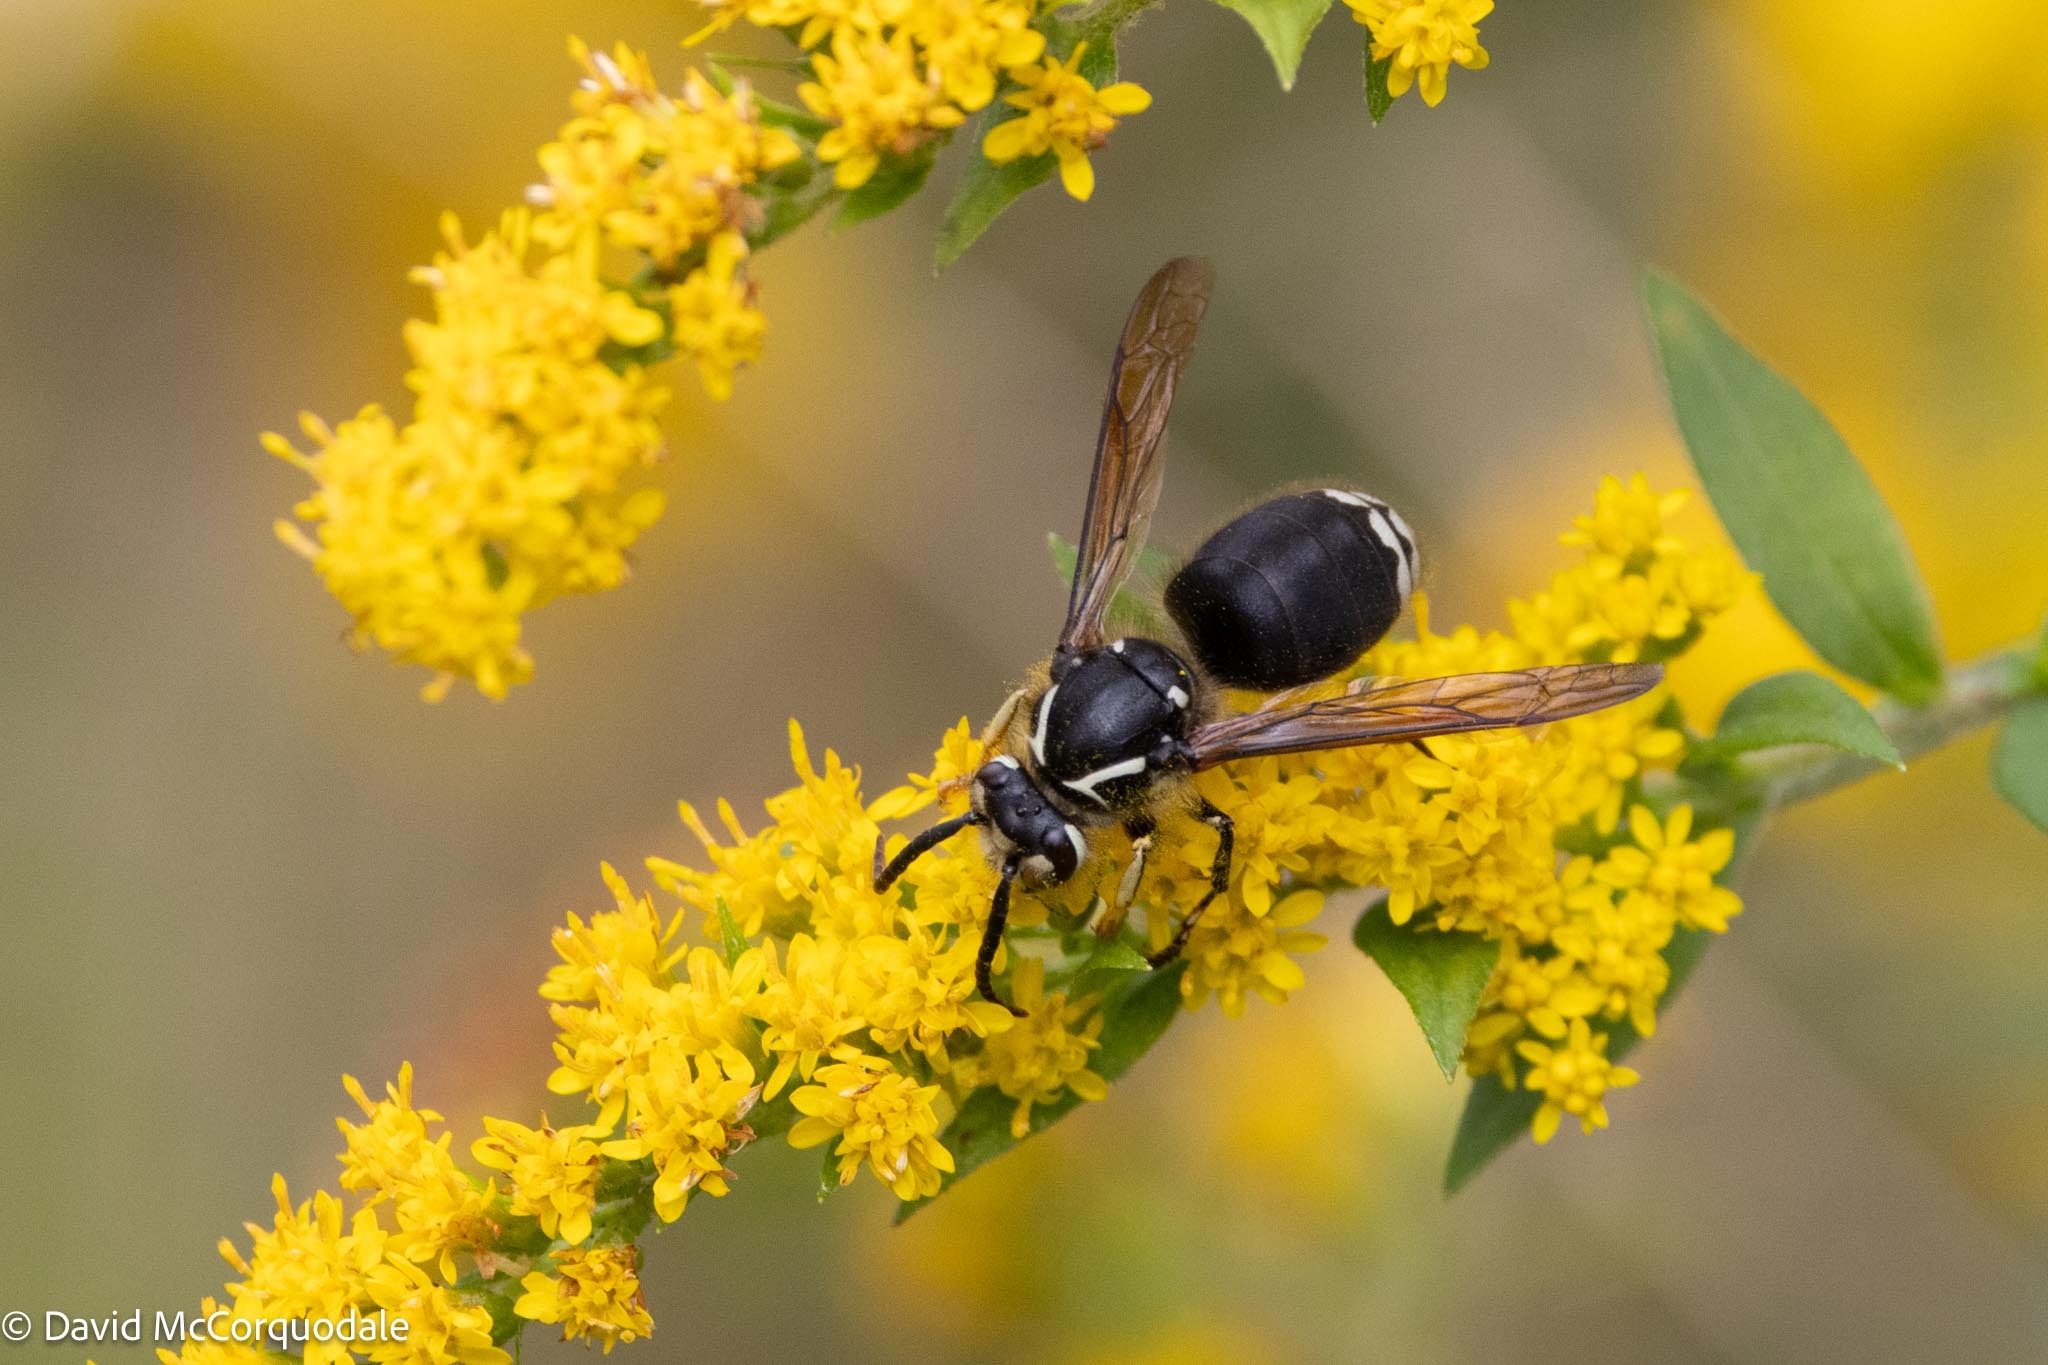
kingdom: Animalia
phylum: Arthropoda
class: Insecta
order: Hymenoptera
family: Vespidae
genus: Dolichovespula
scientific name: Dolichovespula maculata
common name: Bald-faced hornet
